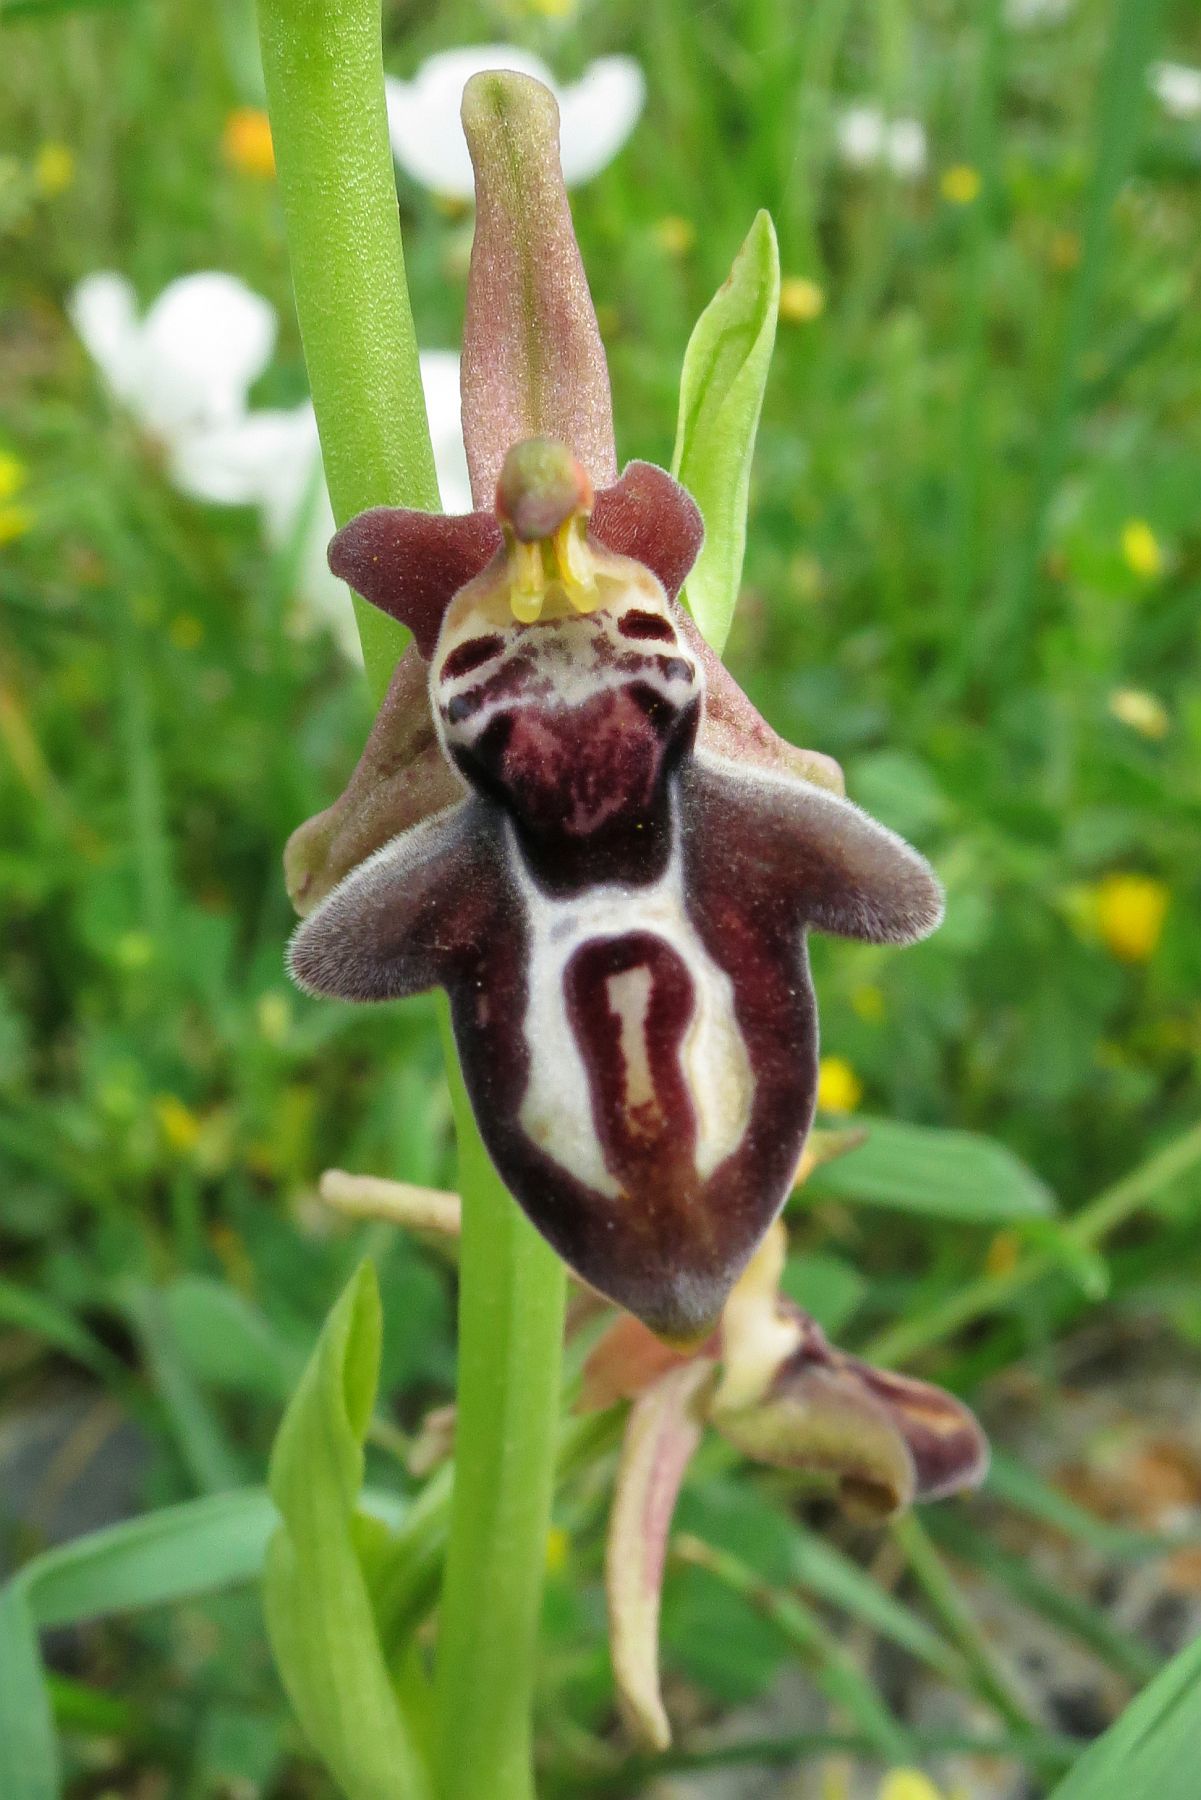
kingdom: Plantae
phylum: Tracheophyta
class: Liliopsida
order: Asparagales
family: Orchidaceae
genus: Ophrys
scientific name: Ophrys cretica
